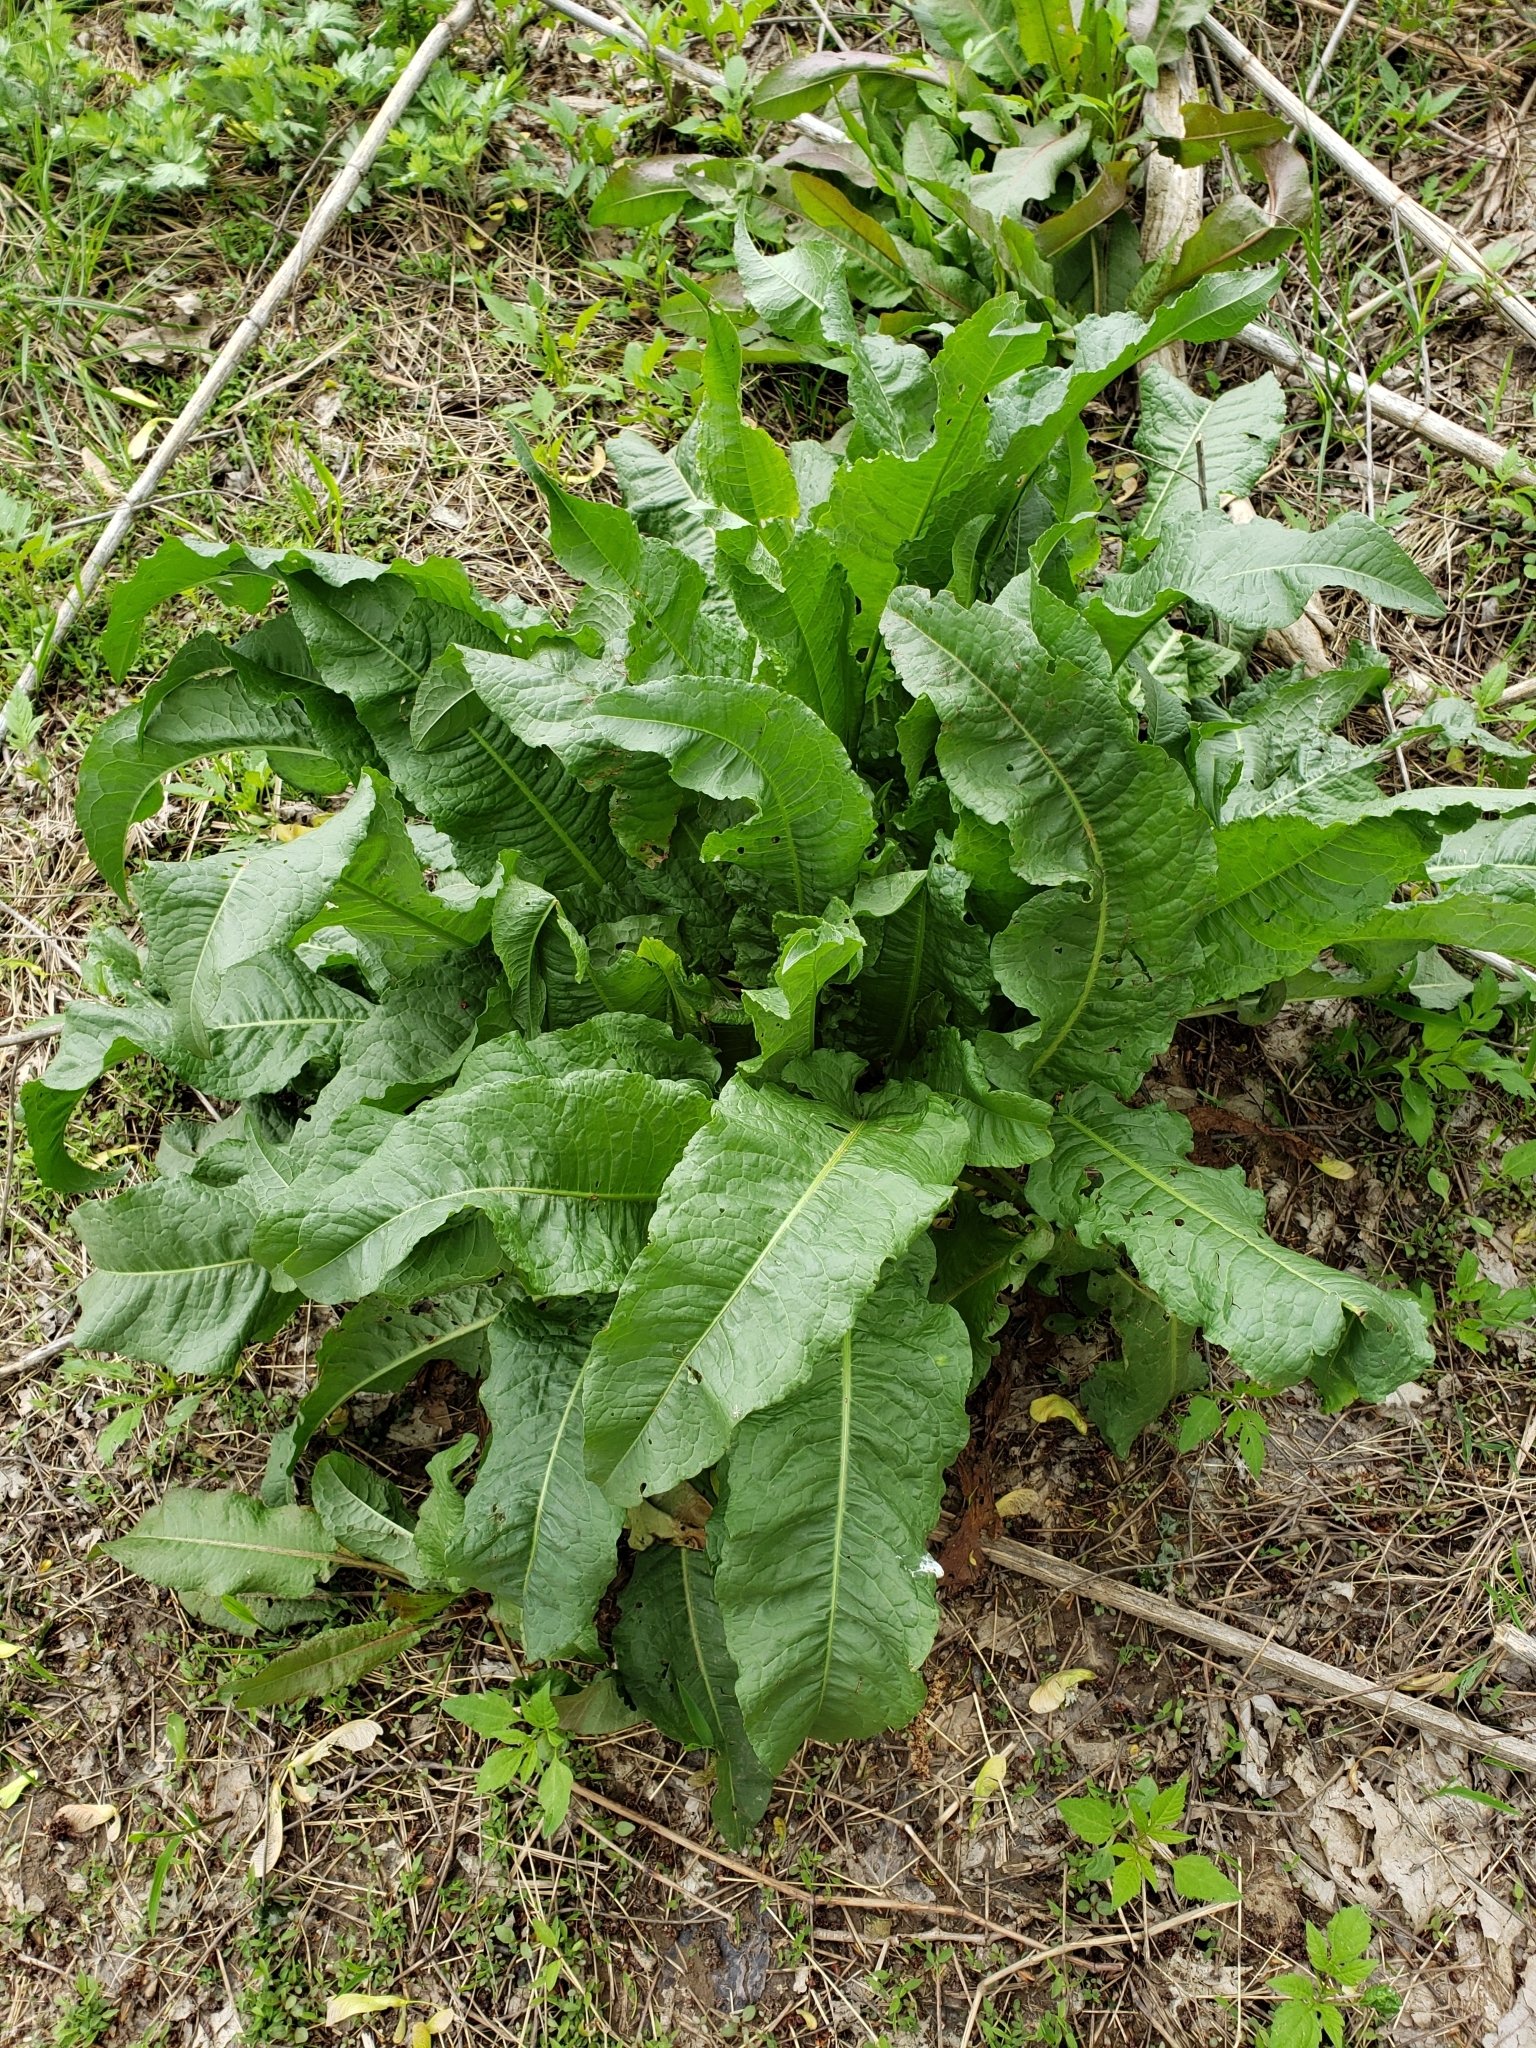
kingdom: Plantae
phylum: Tracheophyta
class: Magnoliopsida
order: Caryophyllales
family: Polygonaceae
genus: Rumex
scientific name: Rumex crispus
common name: Curled dock
